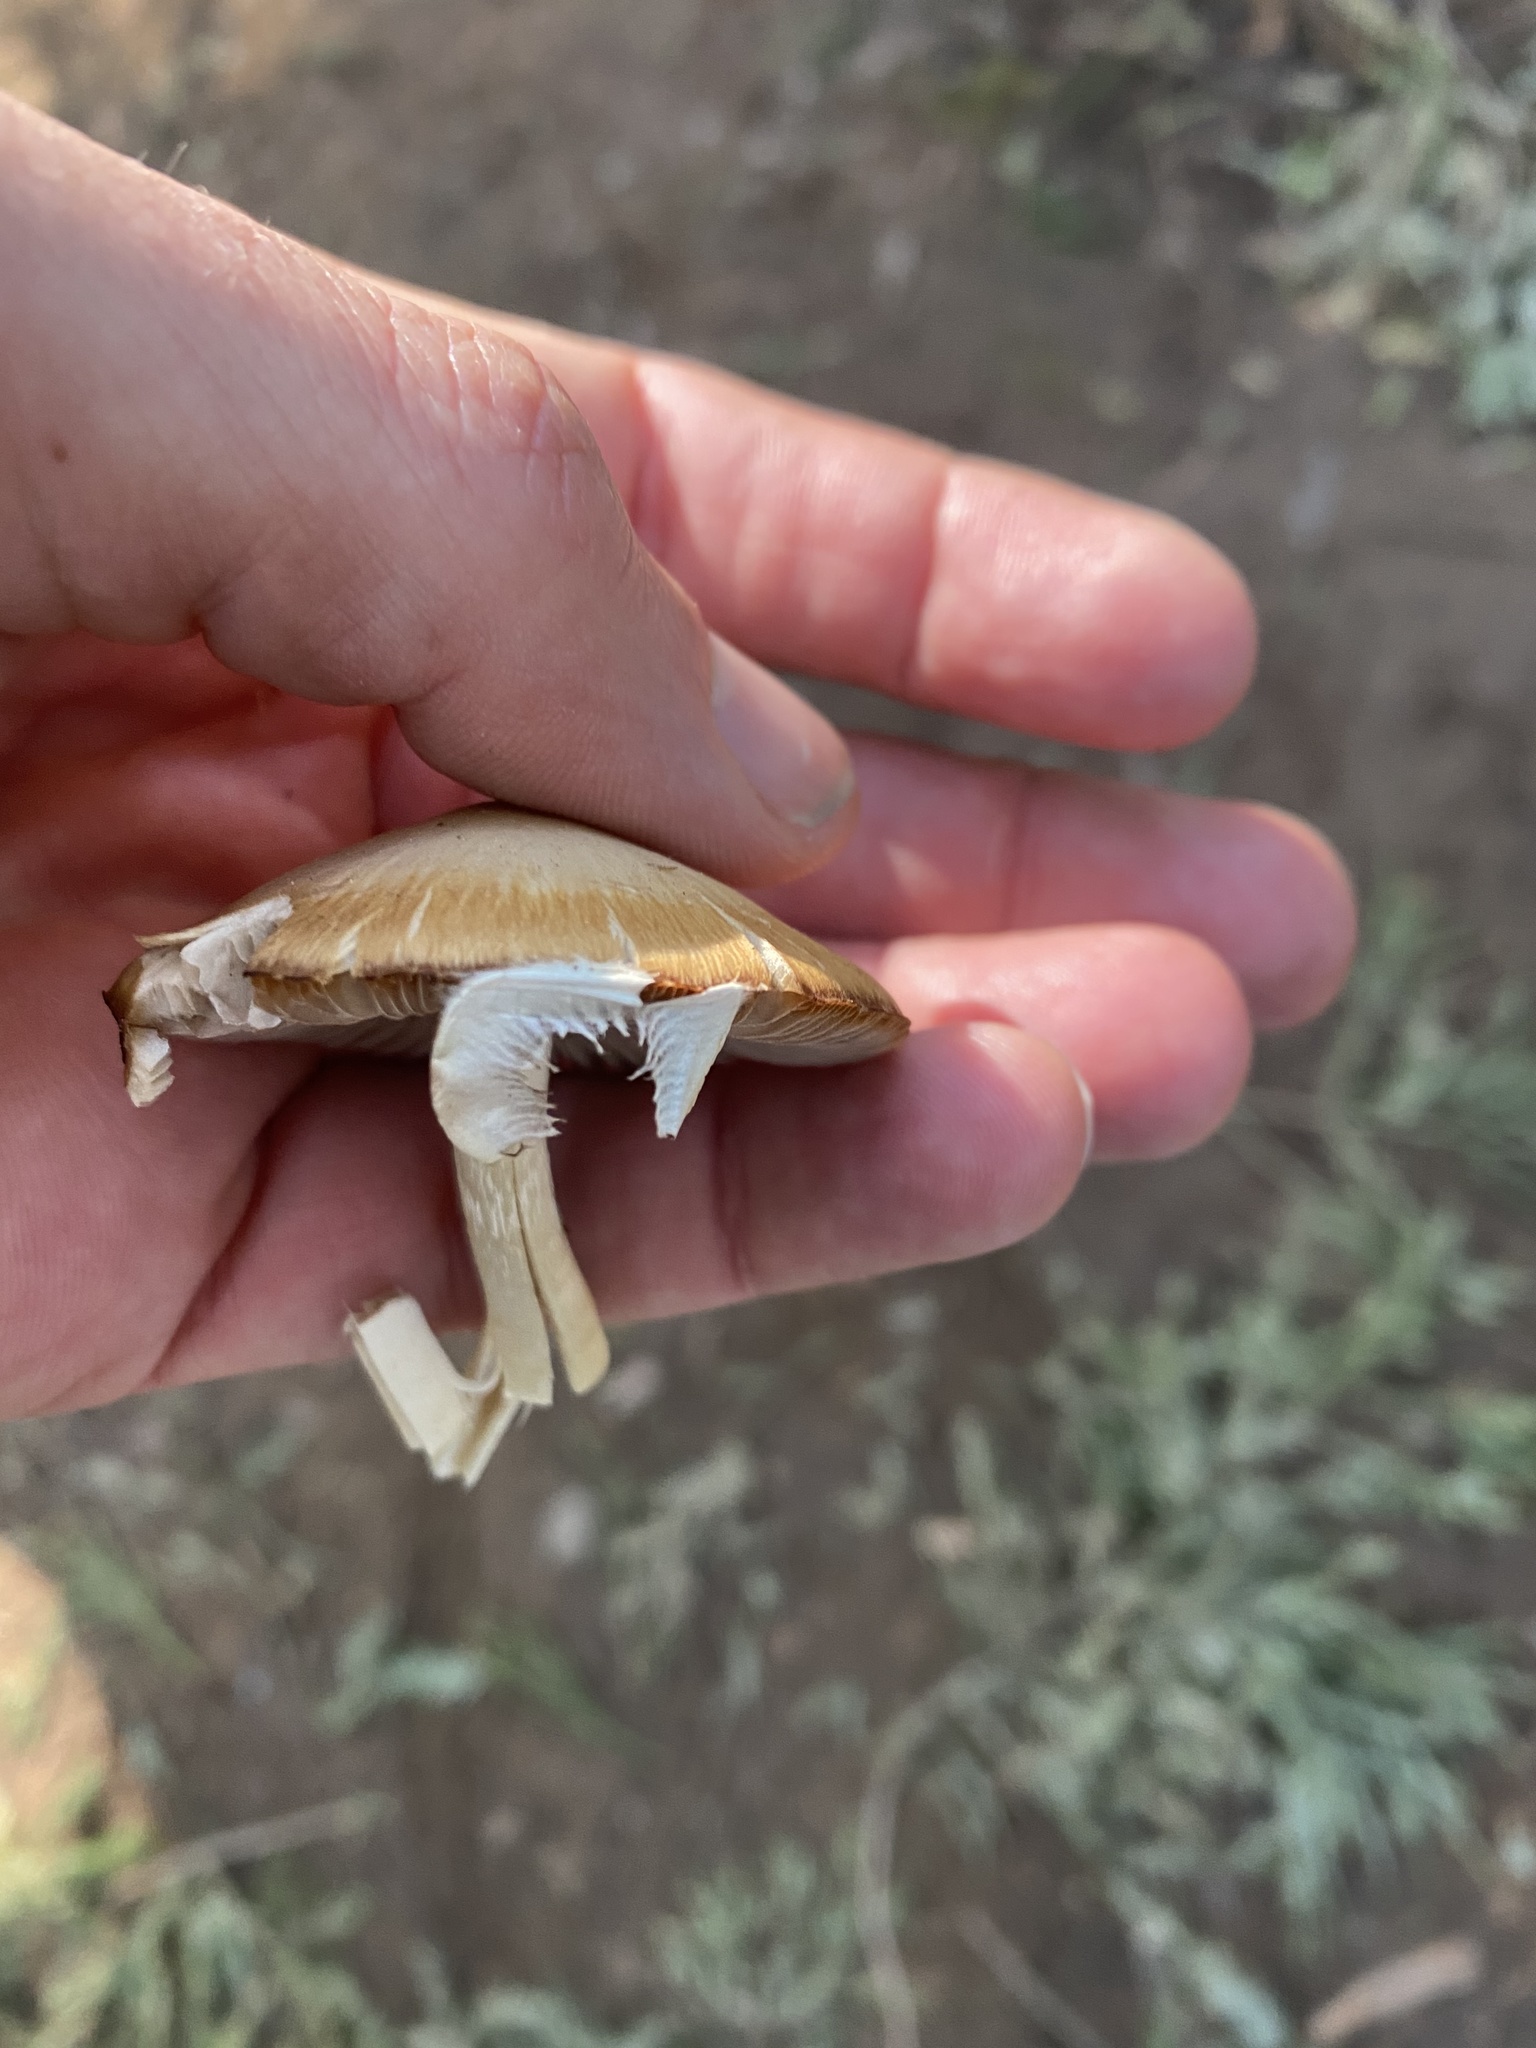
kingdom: Fungi
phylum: Basidiomycota
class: Agaricomycetes
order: Agaricales
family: Psathyrellaceae
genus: Psathyrella
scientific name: Psathyrella longipes
